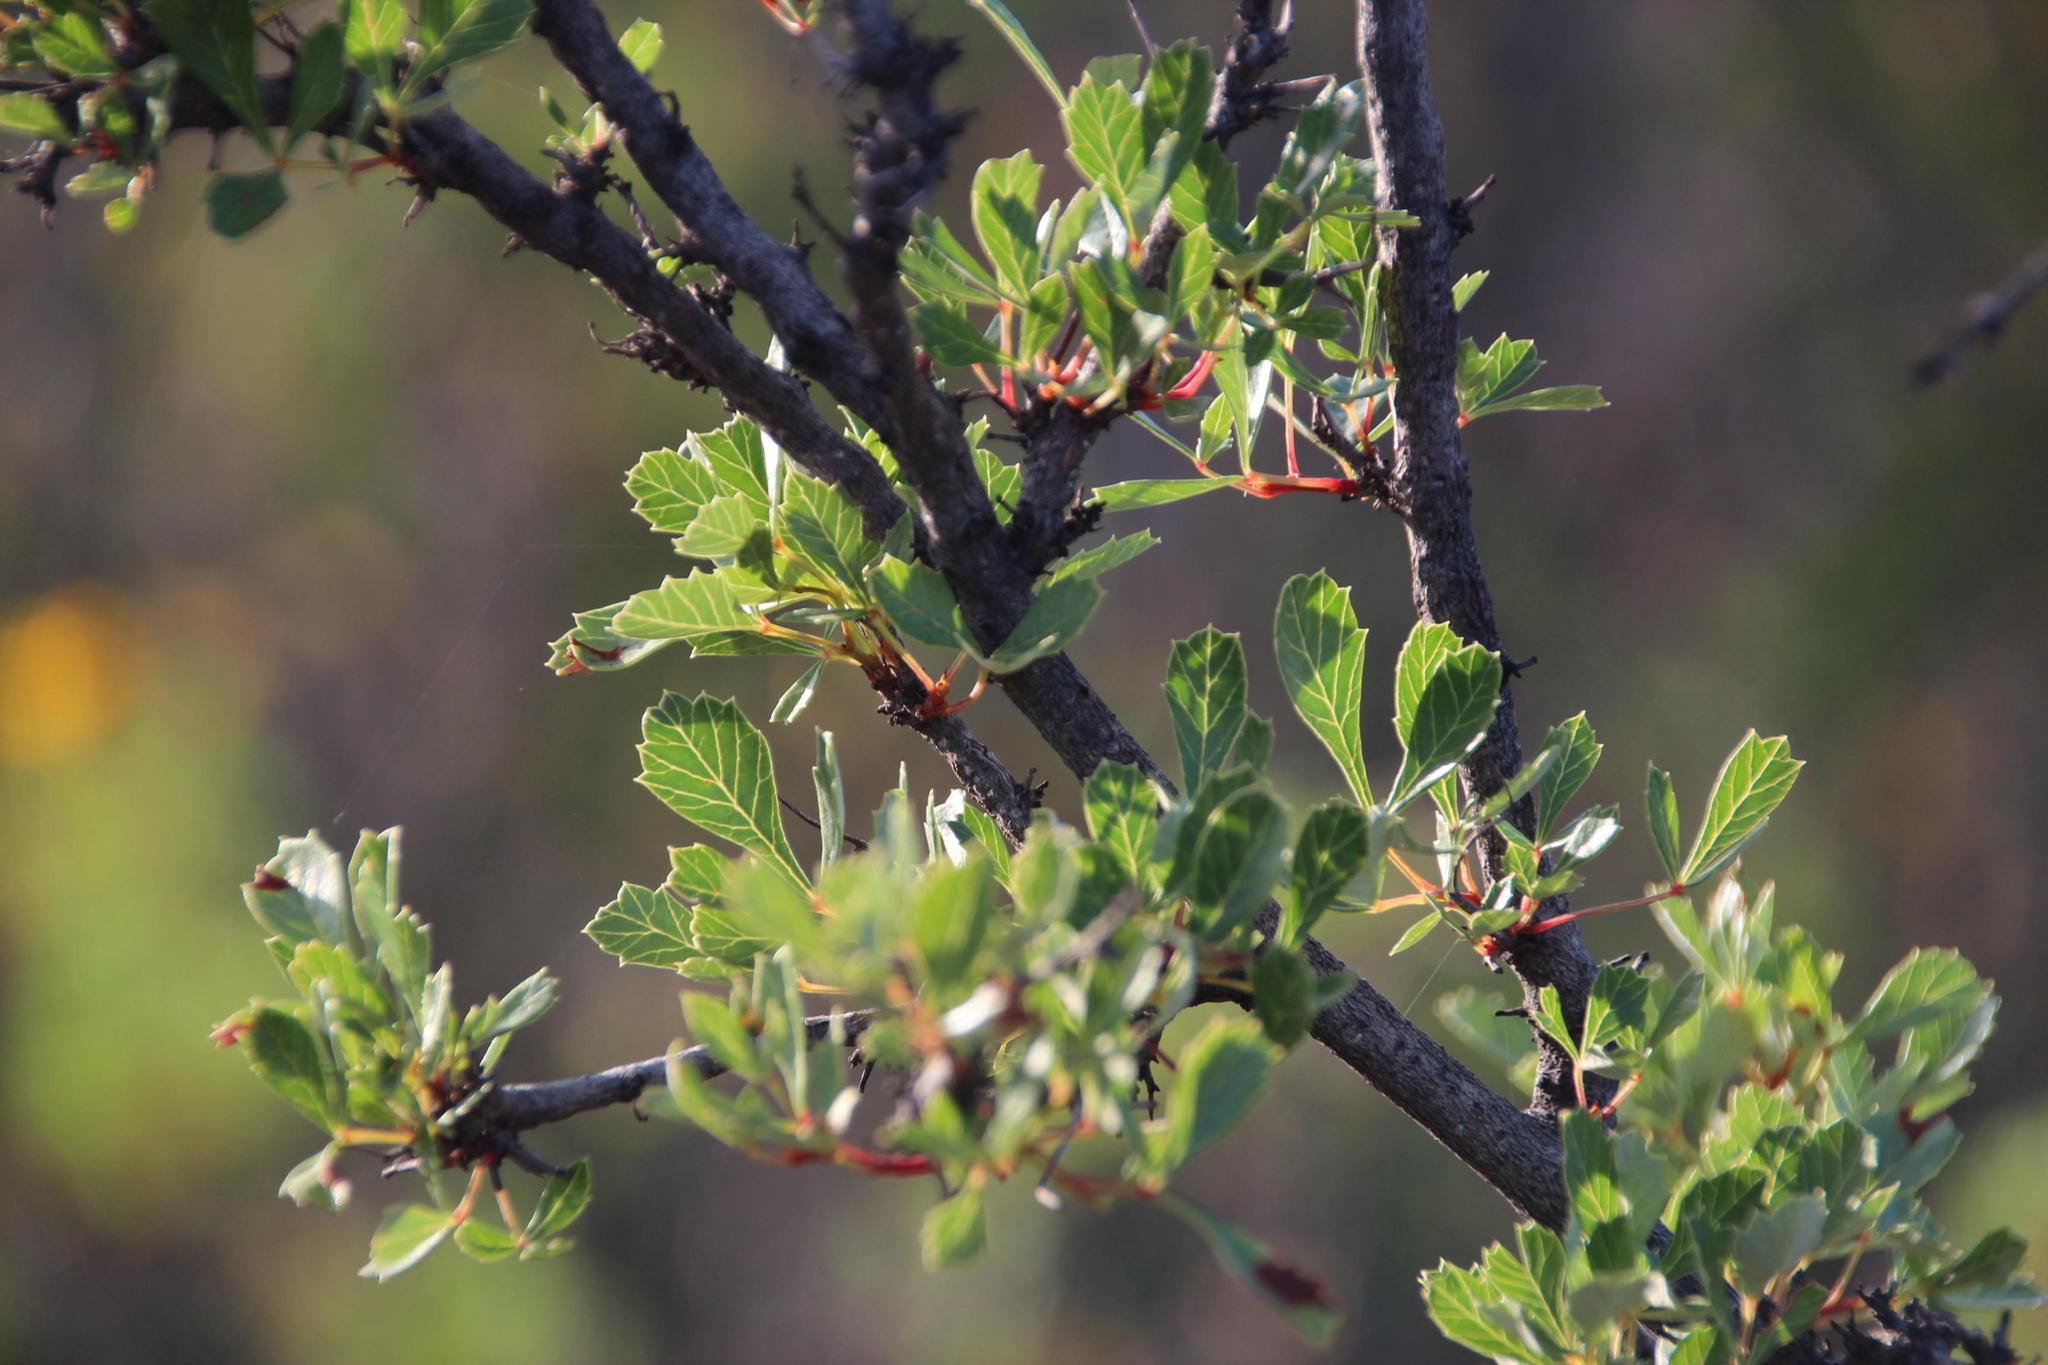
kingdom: Plantae
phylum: Tracheophyta
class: Magnoliopsida
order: Sapindales
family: Anacardiaceae
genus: Searsia
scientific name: Searsia dissecta
